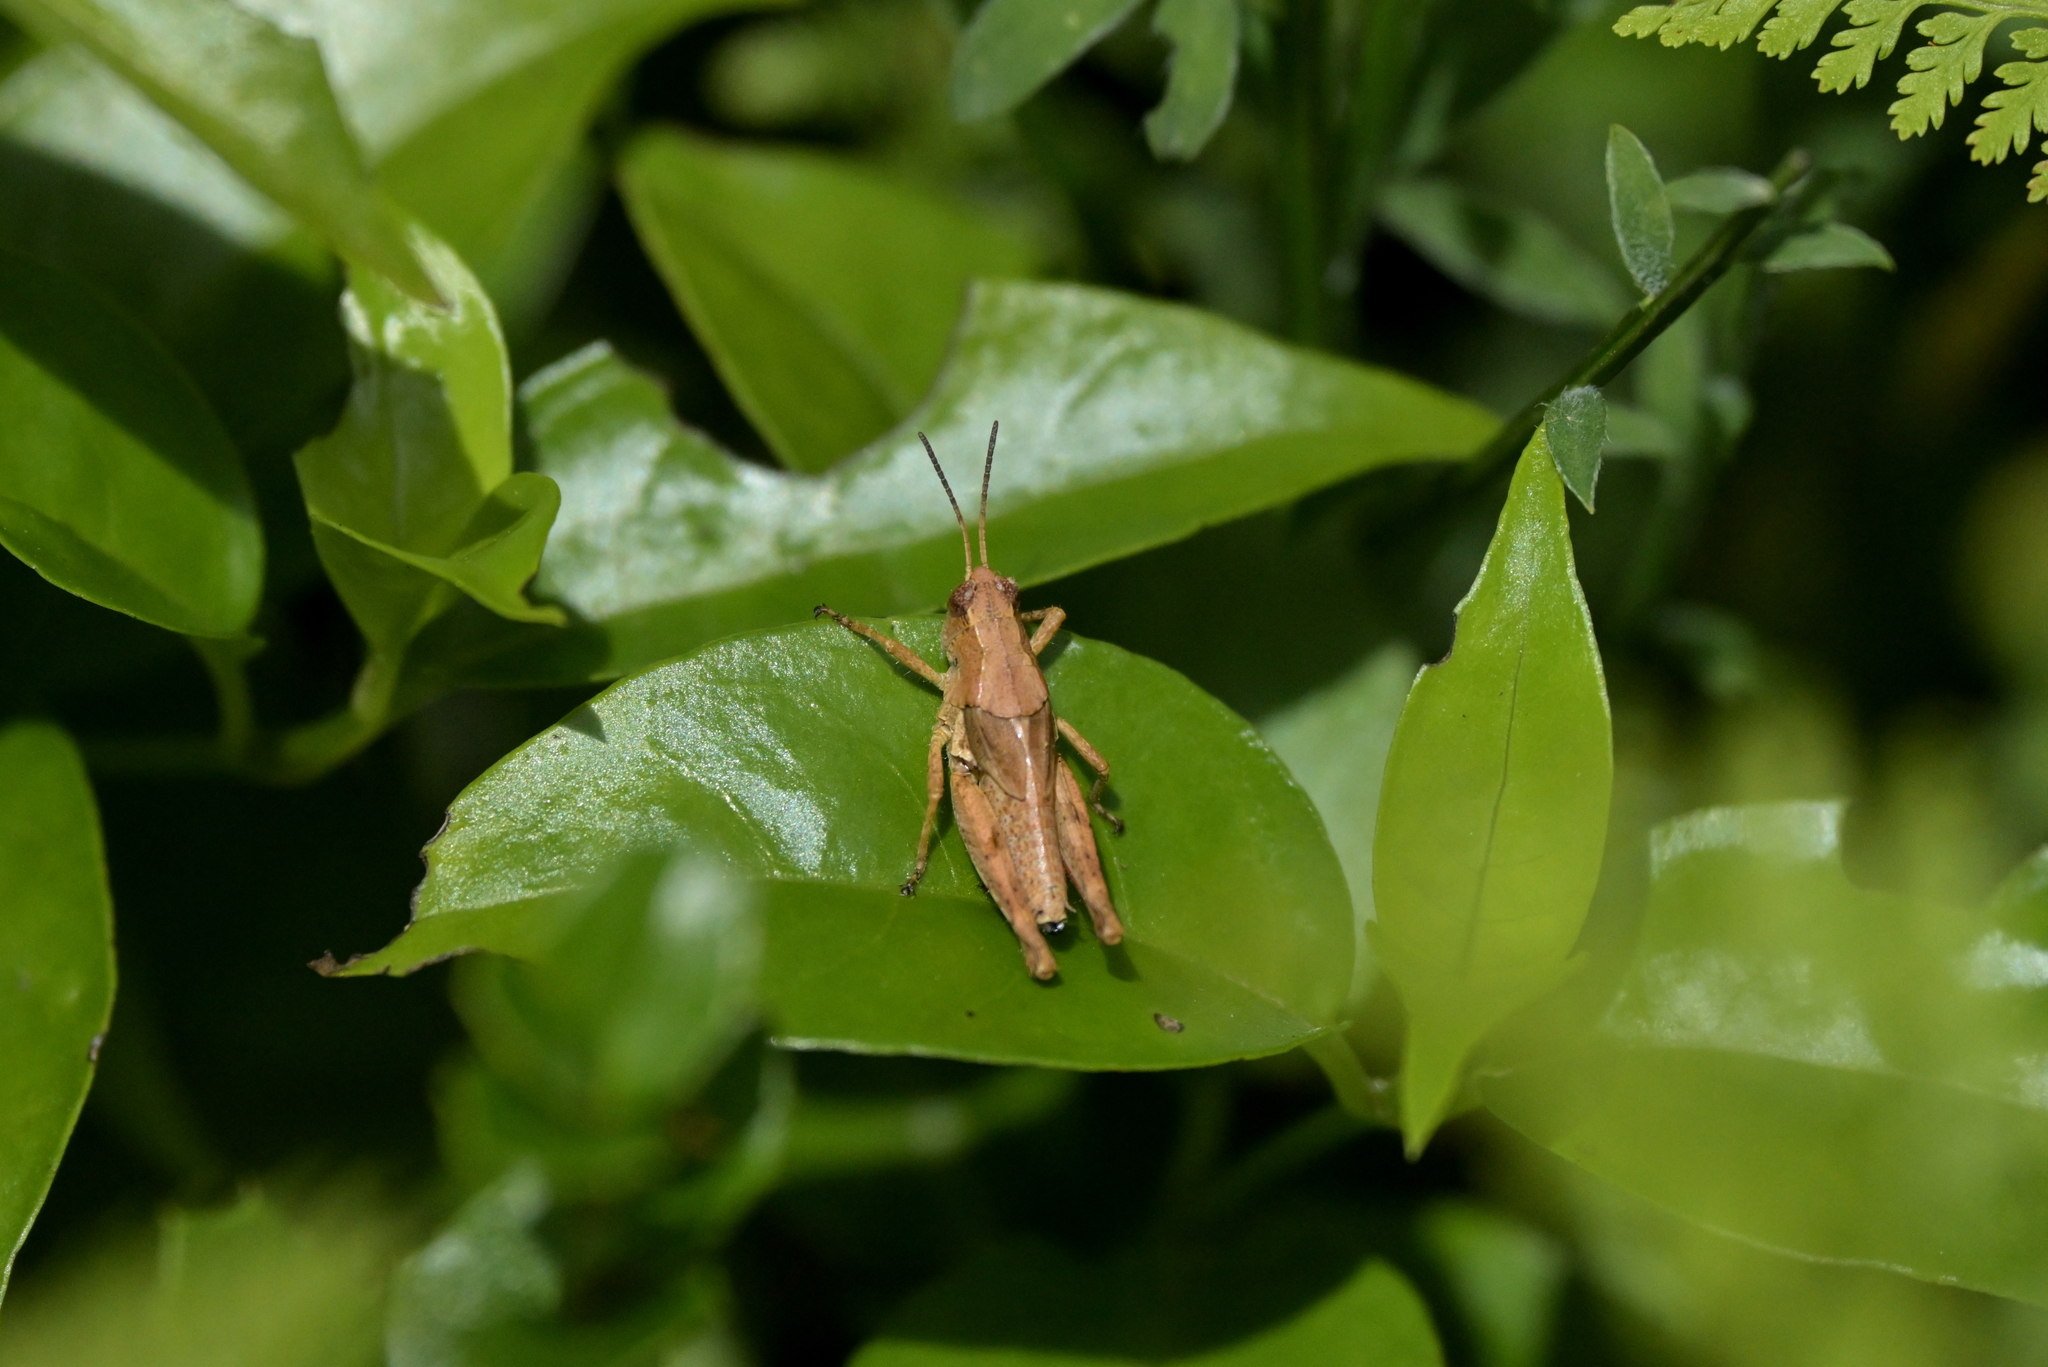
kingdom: Animalia
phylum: Arthropoda
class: Insecta
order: Orthoptera
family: Acrididae
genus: Phaulacridium
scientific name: Phaulacridium marginale
